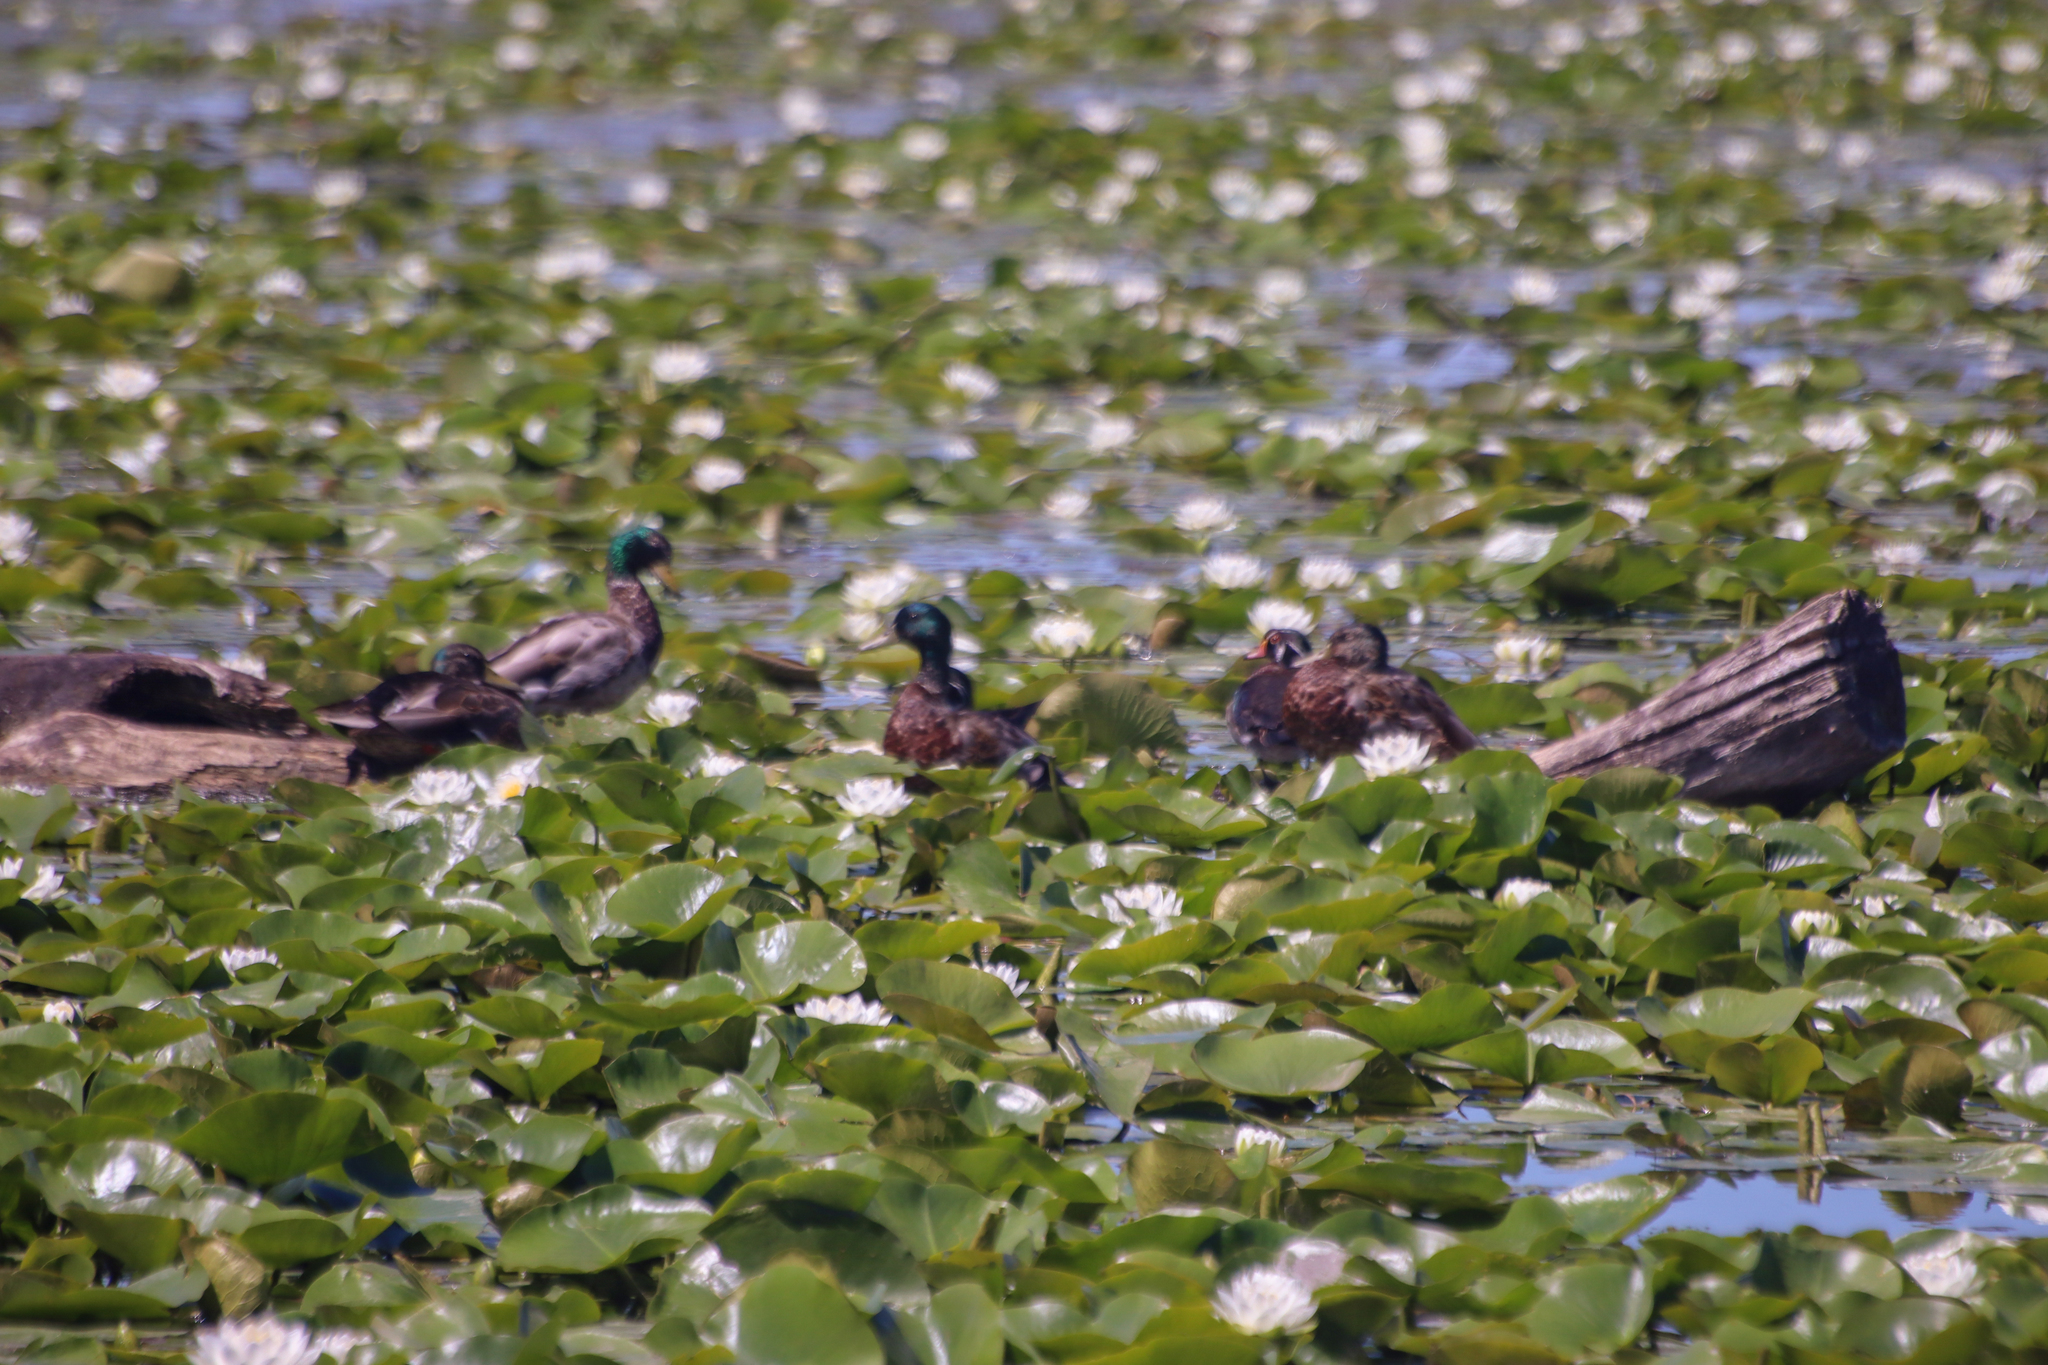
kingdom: Animalia
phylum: Chordata
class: Aves
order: Anseriformes
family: Anatidae
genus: Aix
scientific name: Aix sponsa
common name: Wood duck
